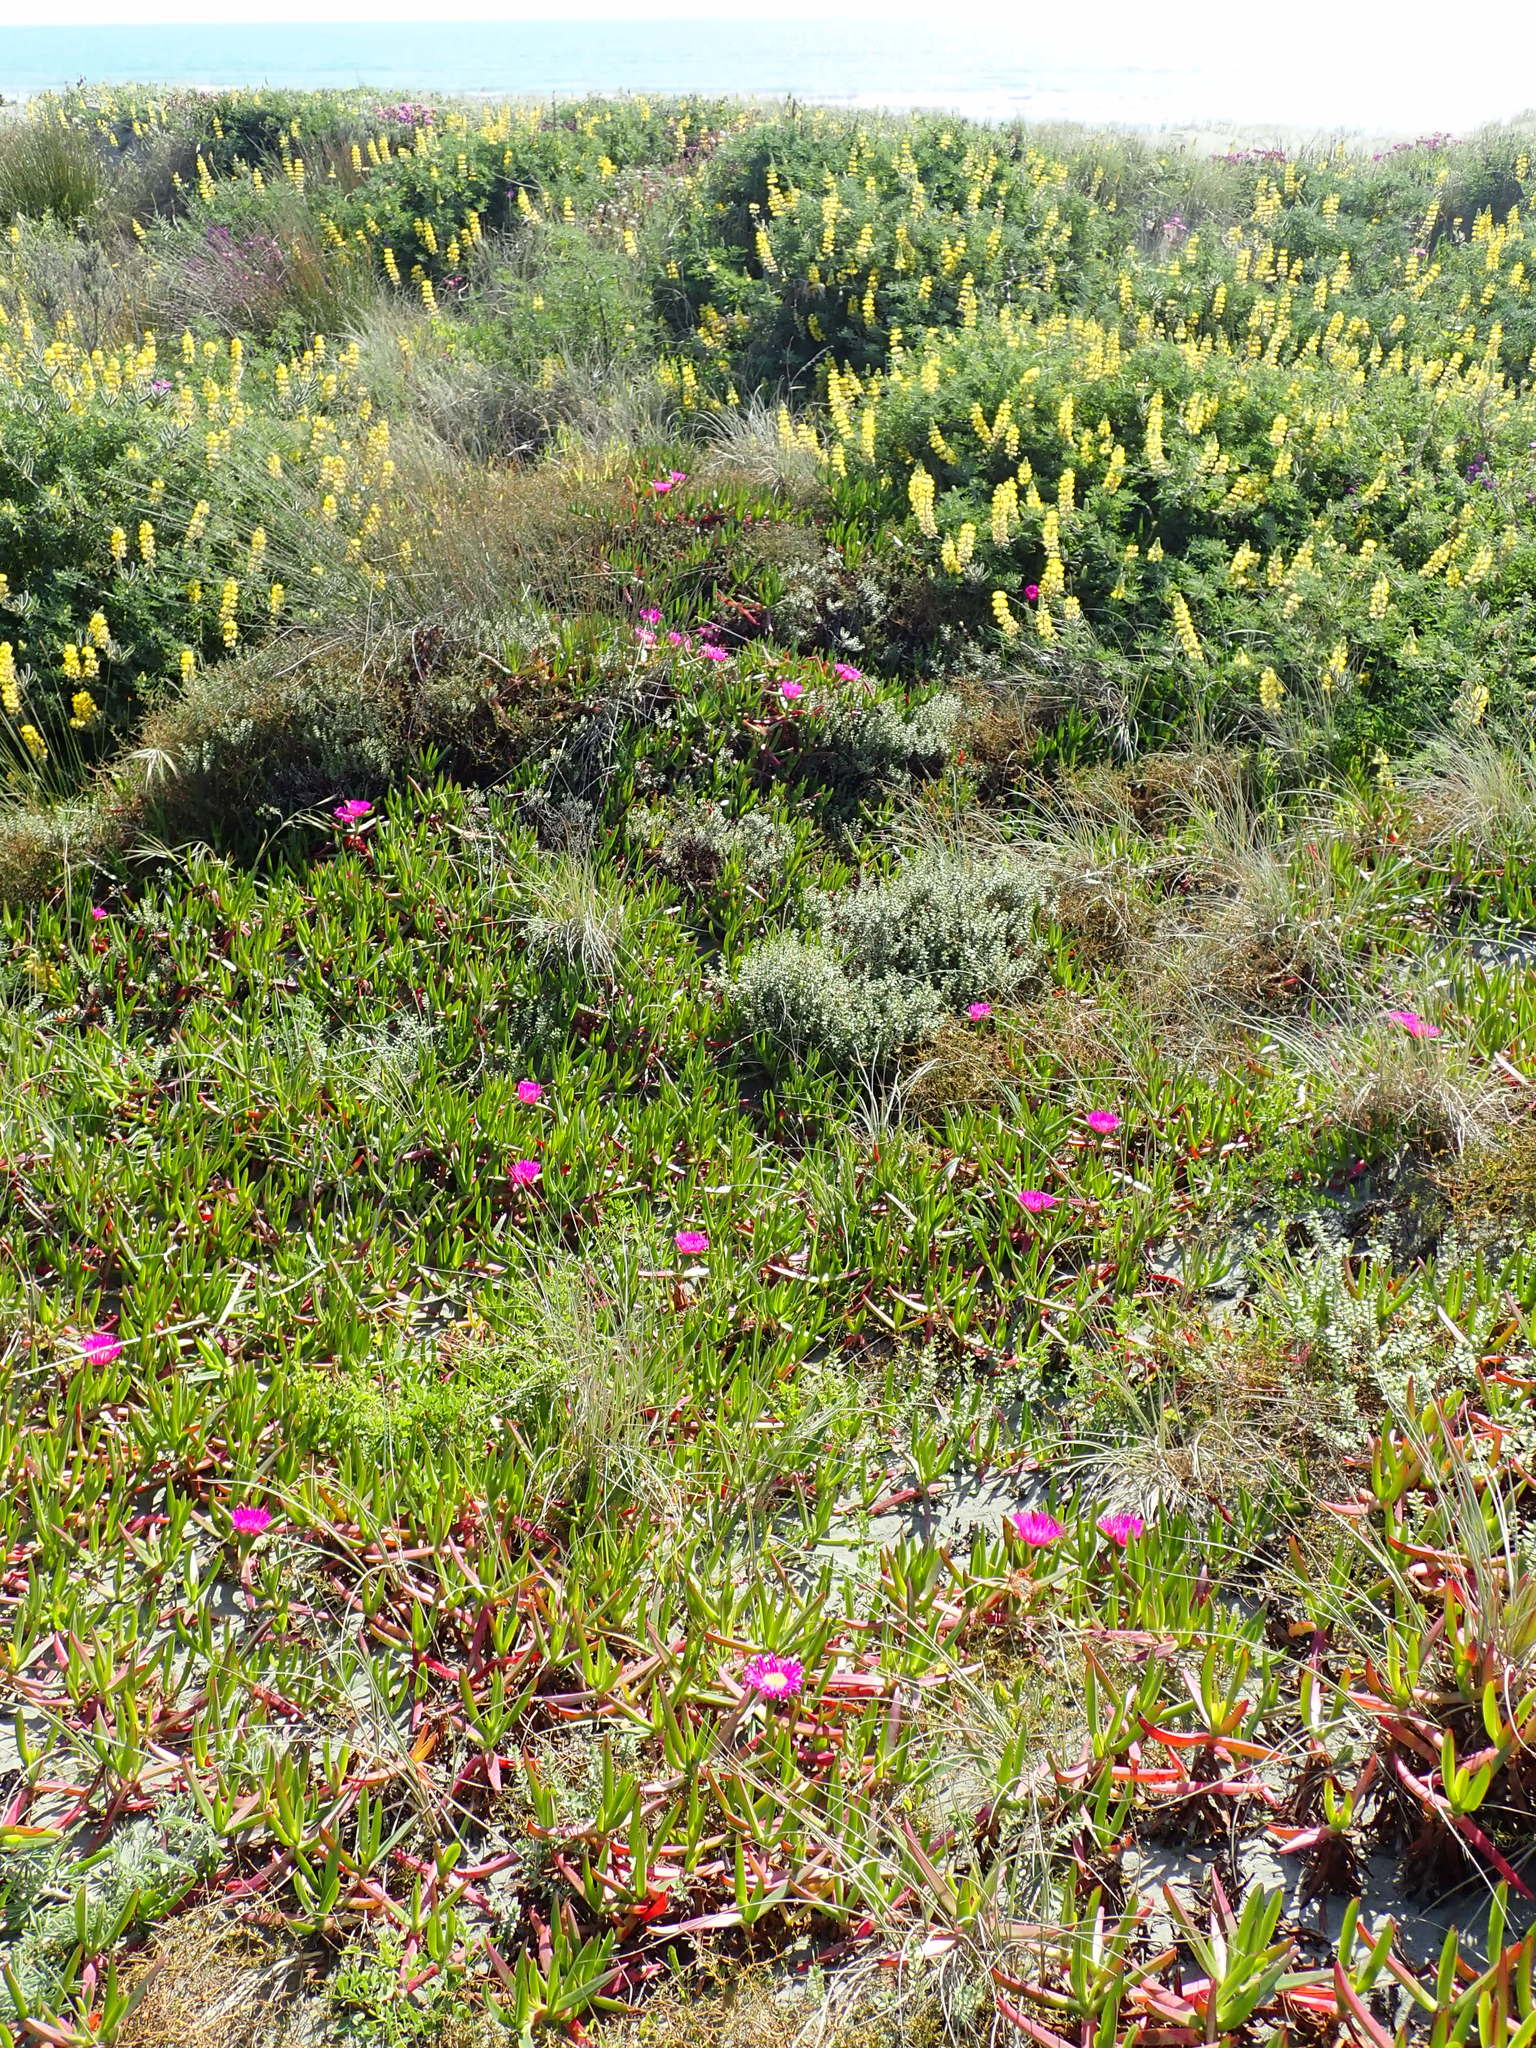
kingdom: Plantae
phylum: Tracheophyta
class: Magnoliopsida
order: Caryophyllales
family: Aizoaceae
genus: Carpobrotus
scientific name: Carpobrotus chilensis
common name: Sea fig
